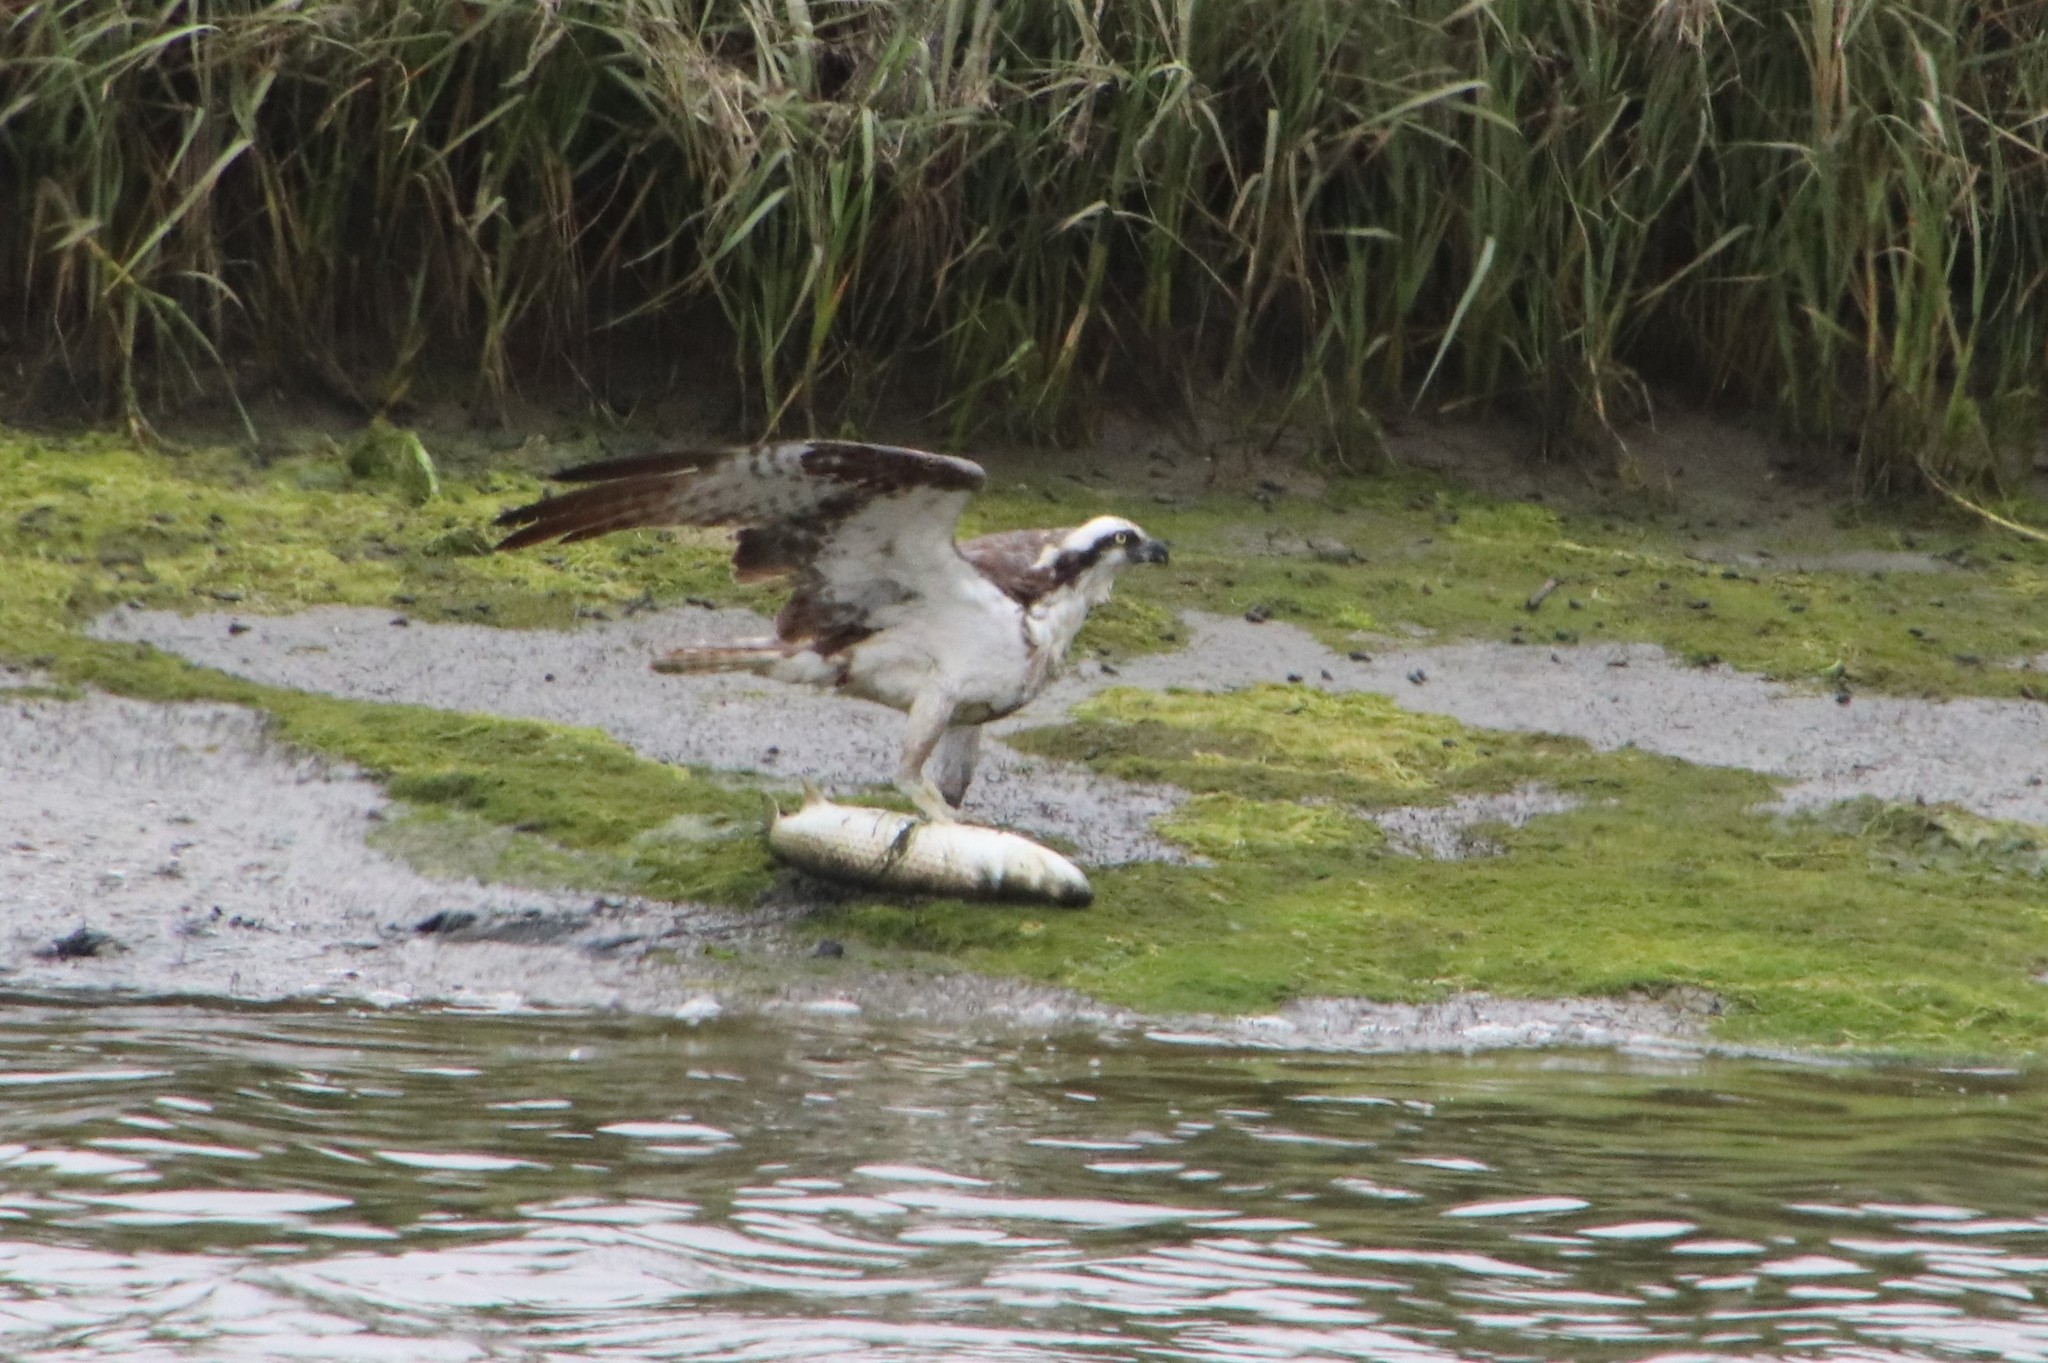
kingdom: Animalia
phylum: Chordata
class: Aves
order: Accipitriformes
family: Pandionidae
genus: Pandion
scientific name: Pandion haliaetus
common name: Osprey
